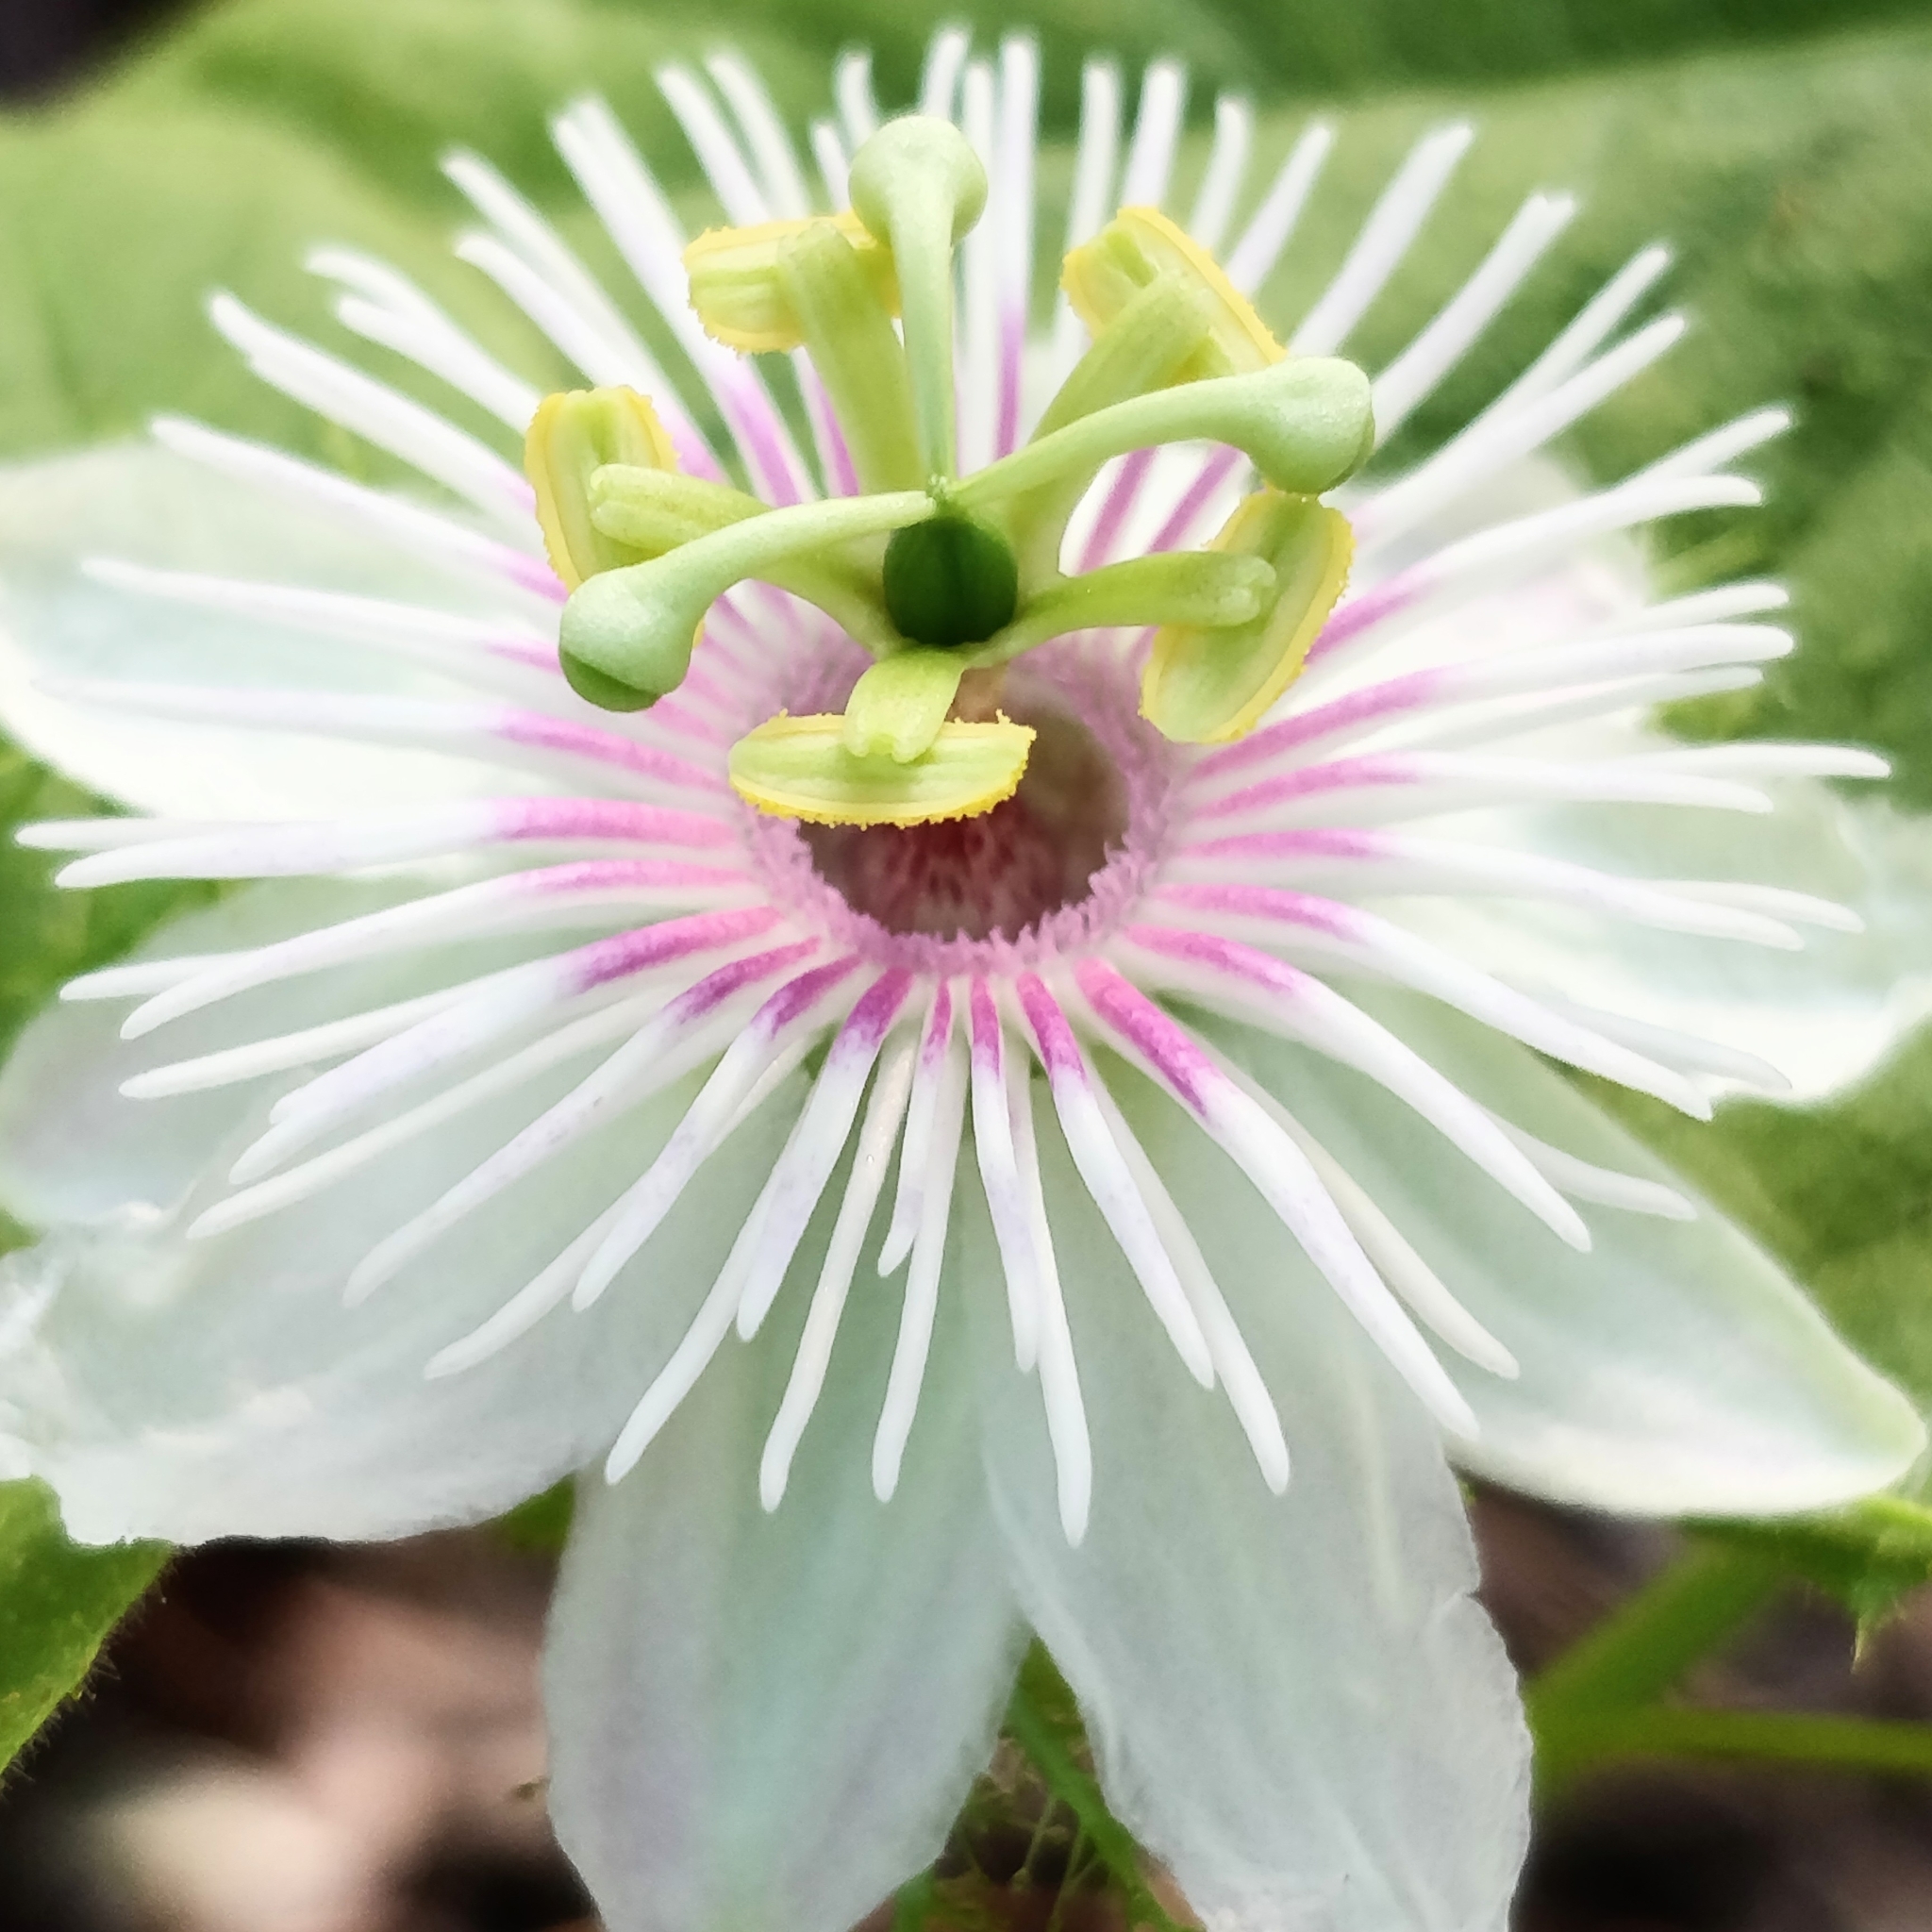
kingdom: Plantae
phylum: Tracheophyta
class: Magnoliopsida
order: Malpighiales
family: Passifloraceae
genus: Passiflora
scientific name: Passiflora foetida
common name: Fetid passionflower
